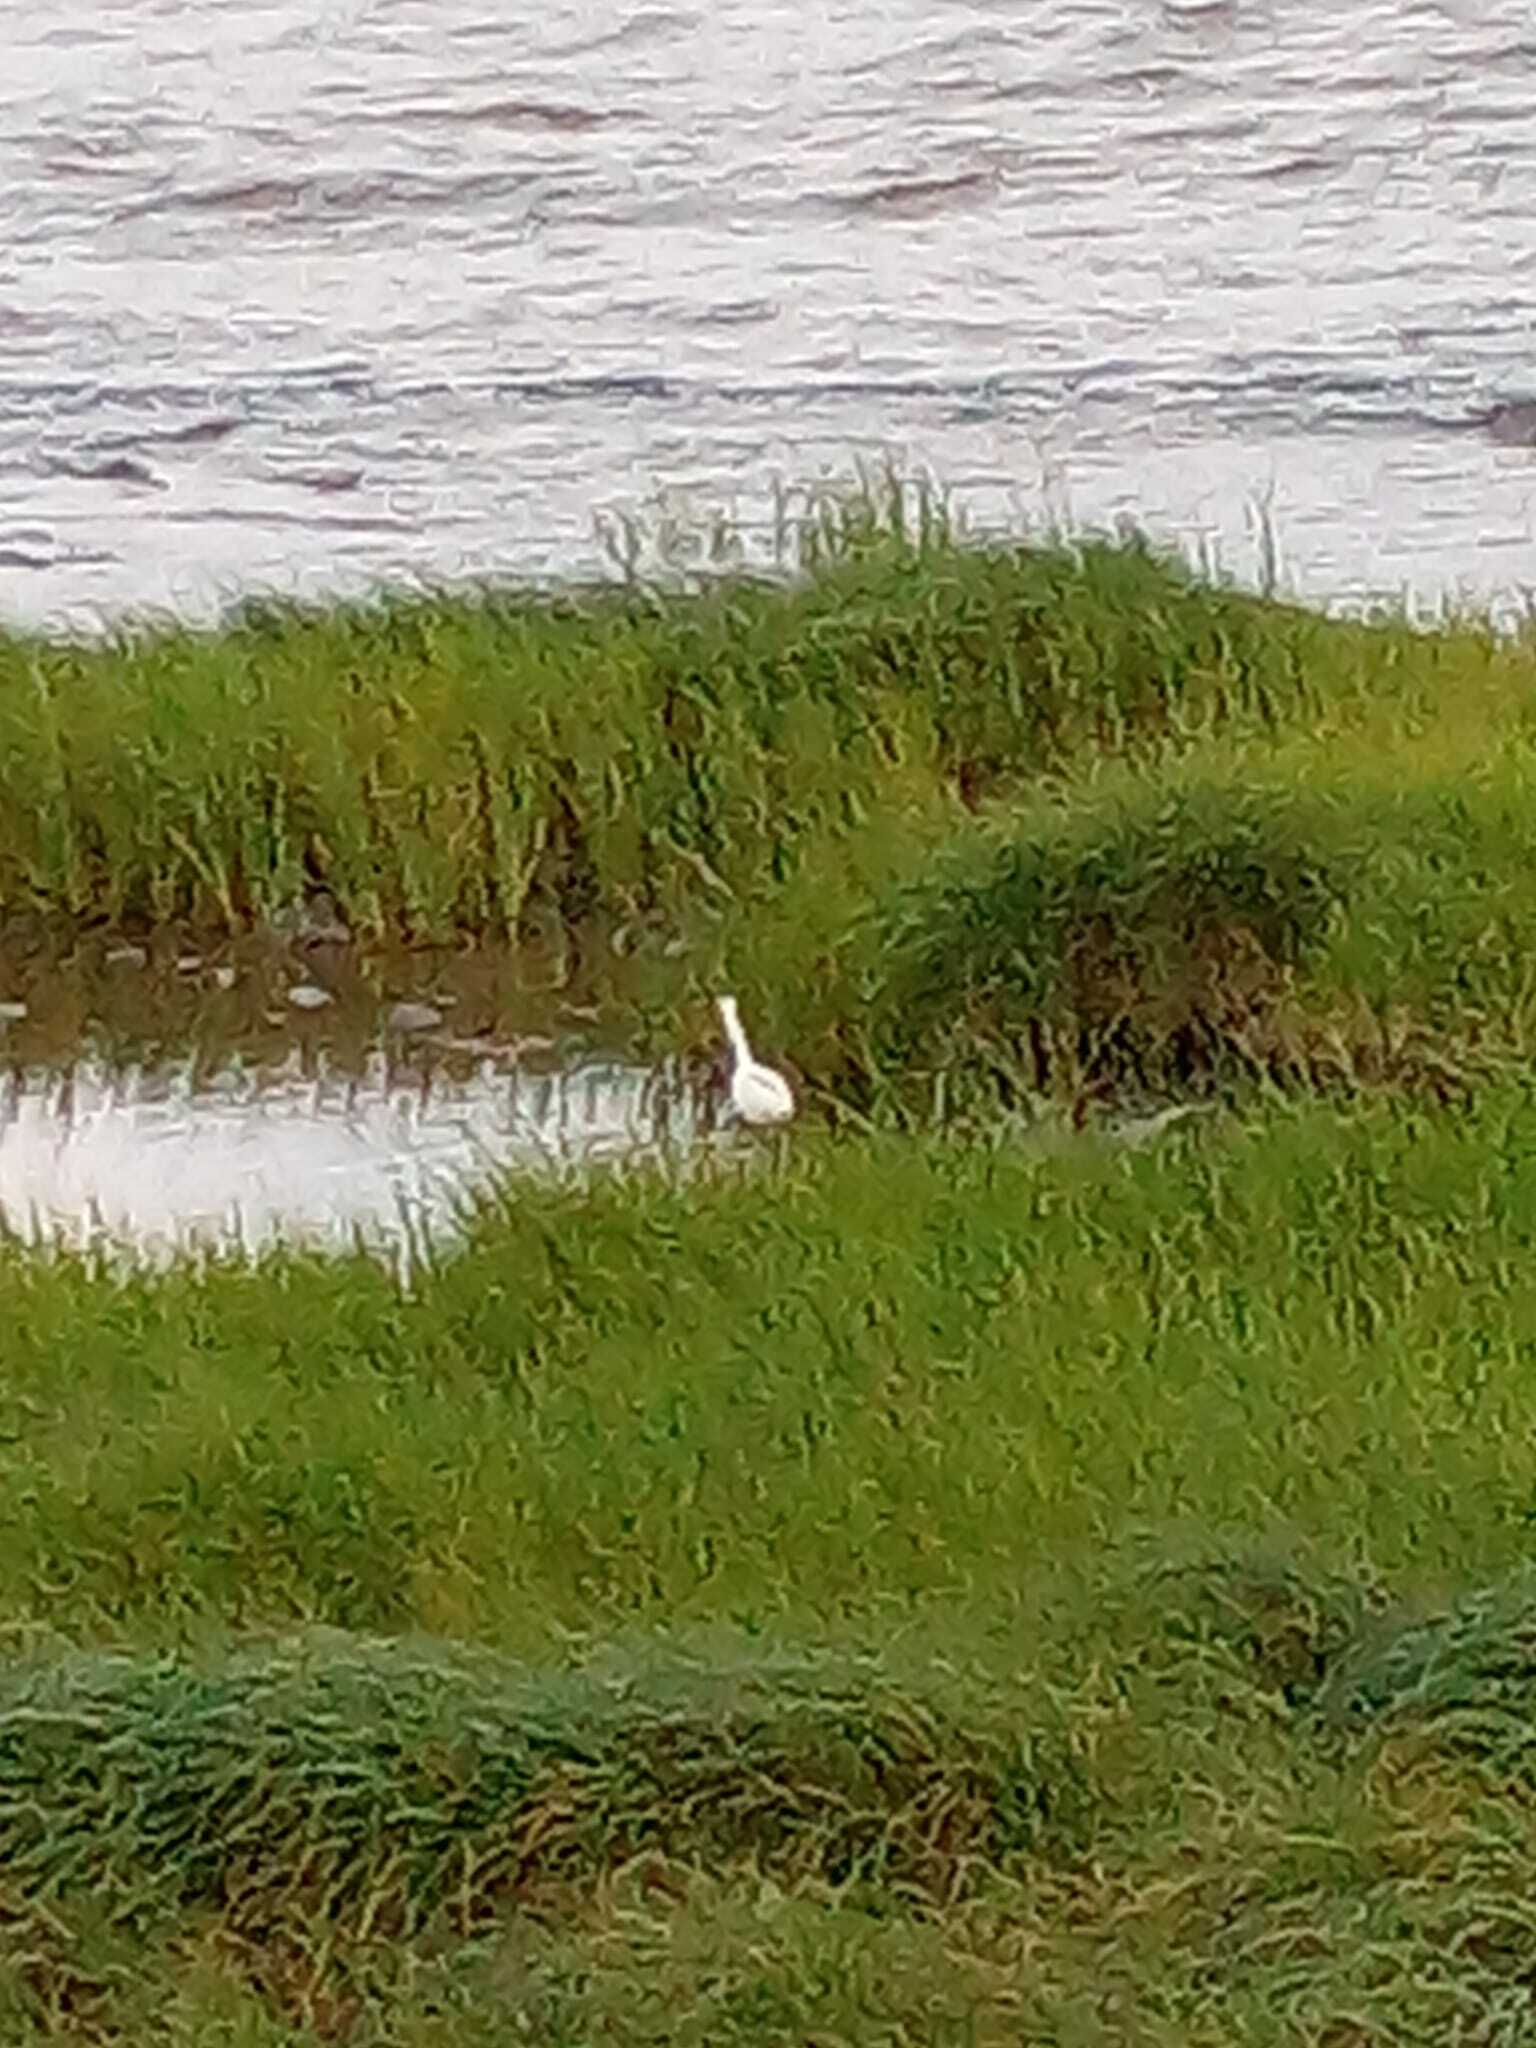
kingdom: Animalia
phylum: Chordata
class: Aves
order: Pelecaniformes
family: Ardeidae
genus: Egretta
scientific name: Egretta thula
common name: Snowy egret
